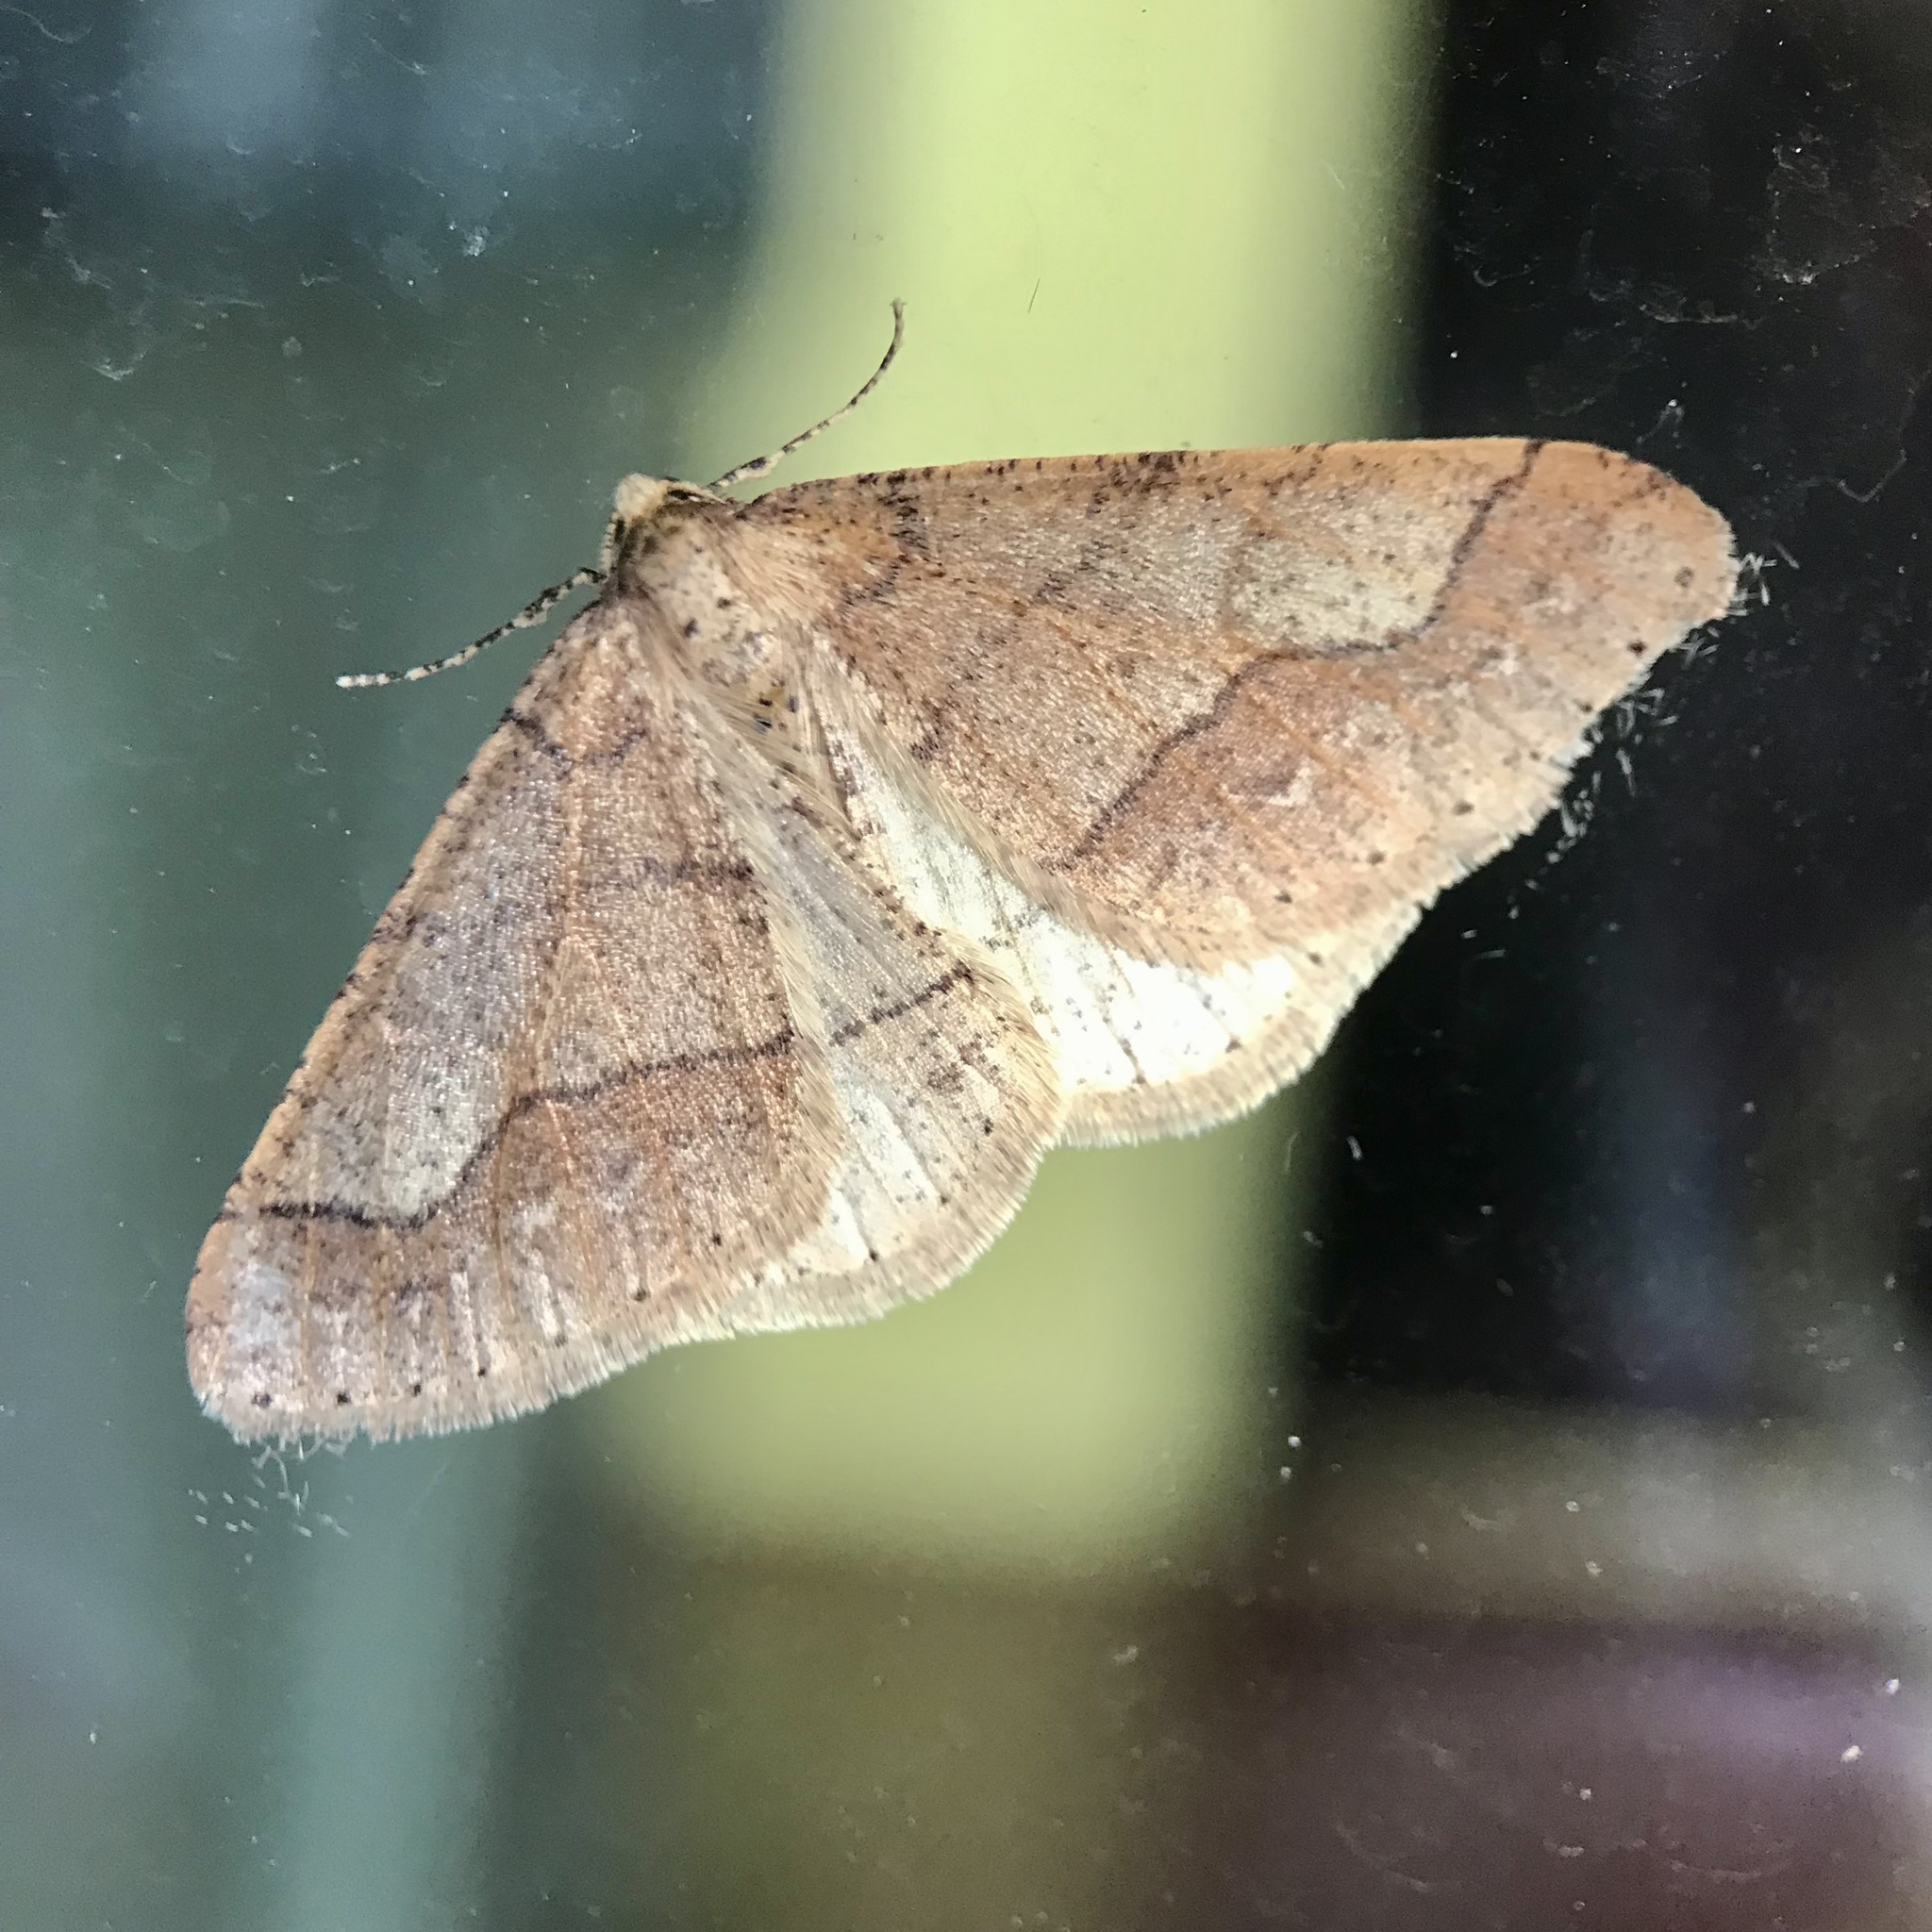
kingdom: Animalia
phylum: Arthropoda
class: Insecta
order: Lepidoptera
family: Geometridae
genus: Agriopis
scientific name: Agriopis marginaria
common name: Dotted border
